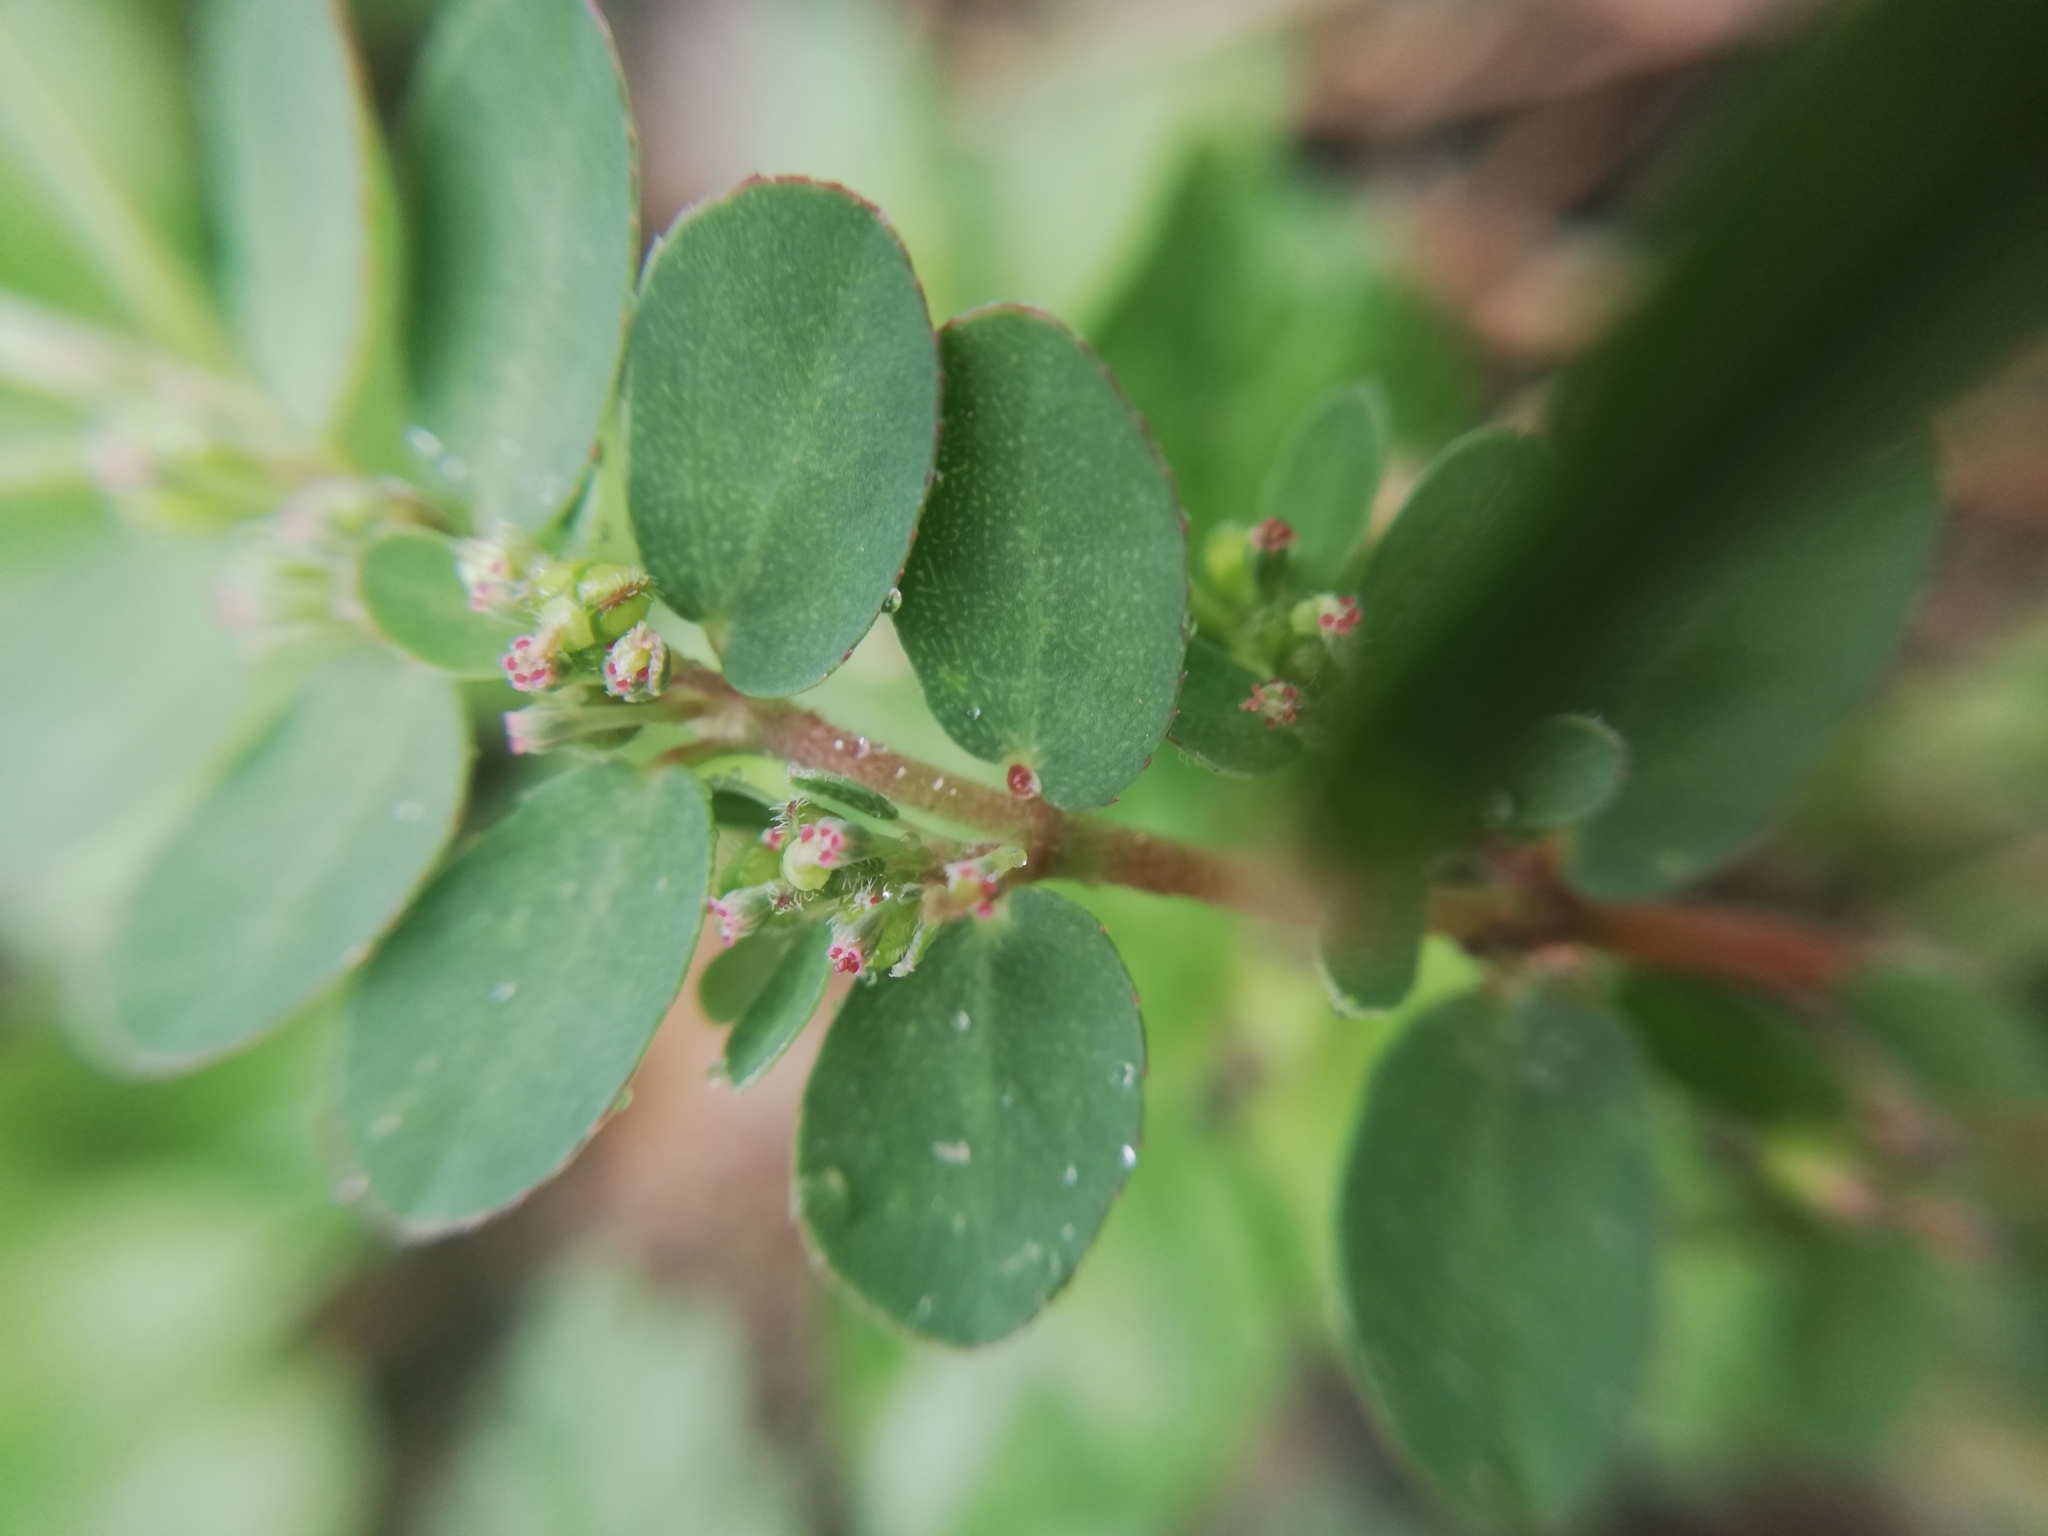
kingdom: Plantae
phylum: Tracheophyta
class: Magnoliopsida
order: Malpighiales
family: Euphorbiaceae
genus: Euphorbia
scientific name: Euphorbia prostrata
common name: Prostrate sandmat
